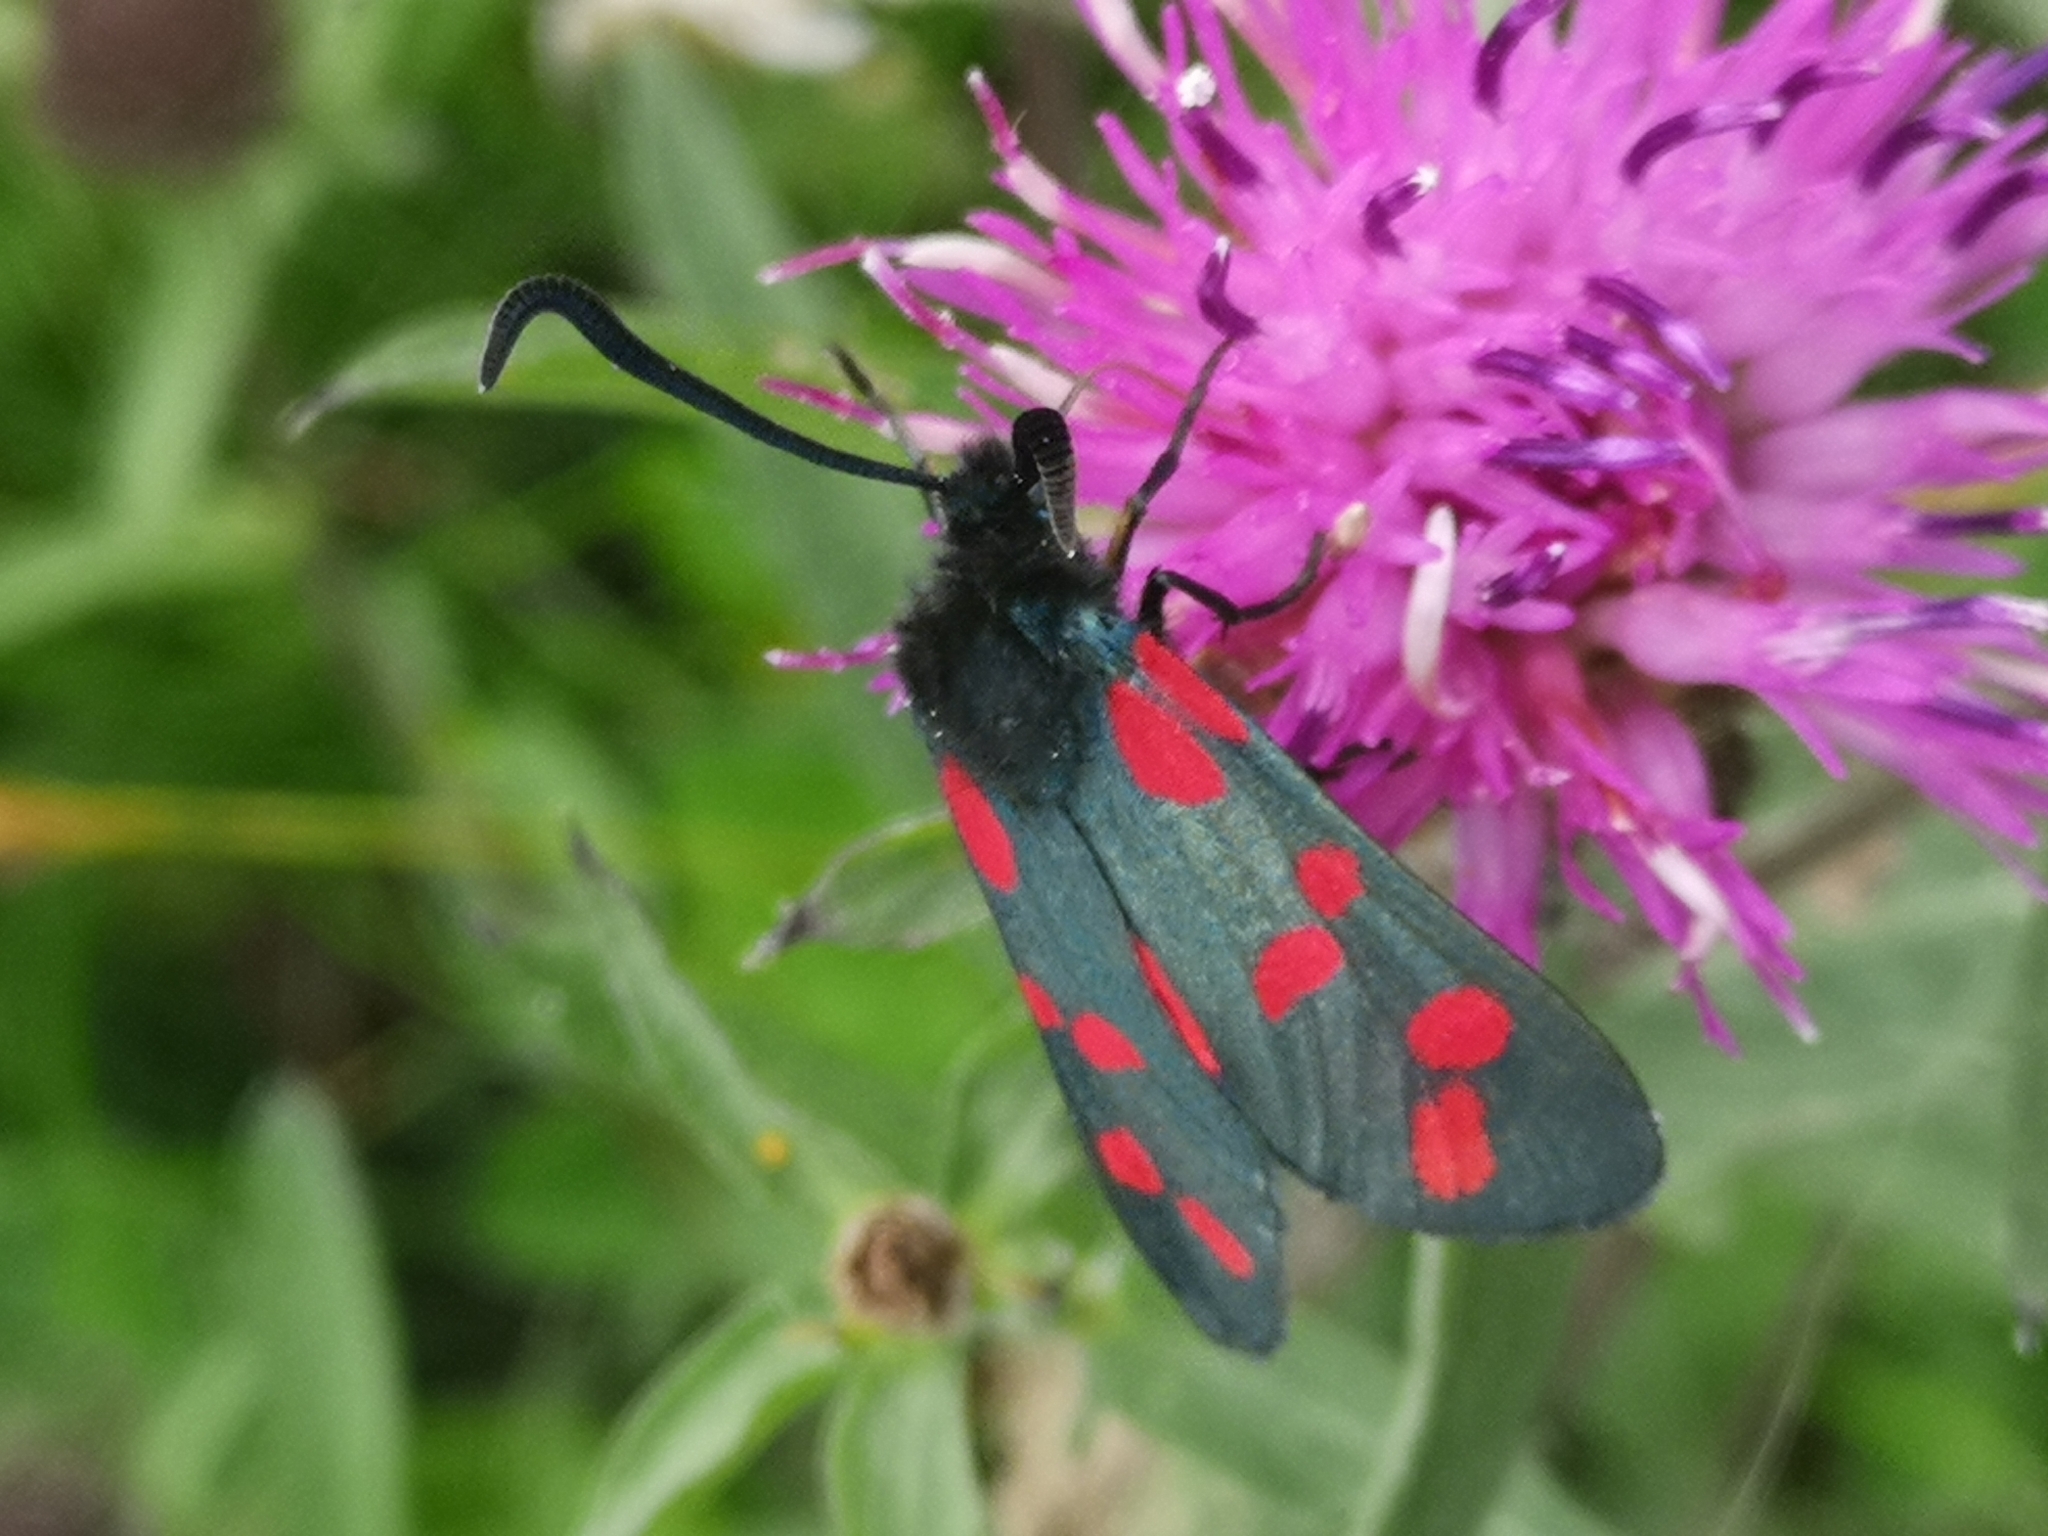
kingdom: Animalia
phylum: Arthropoda
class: Insecta
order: Lepidoptera
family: Zygaenidae
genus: Zygaena
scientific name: Zygaena filipendulae
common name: Six-spot burnet
